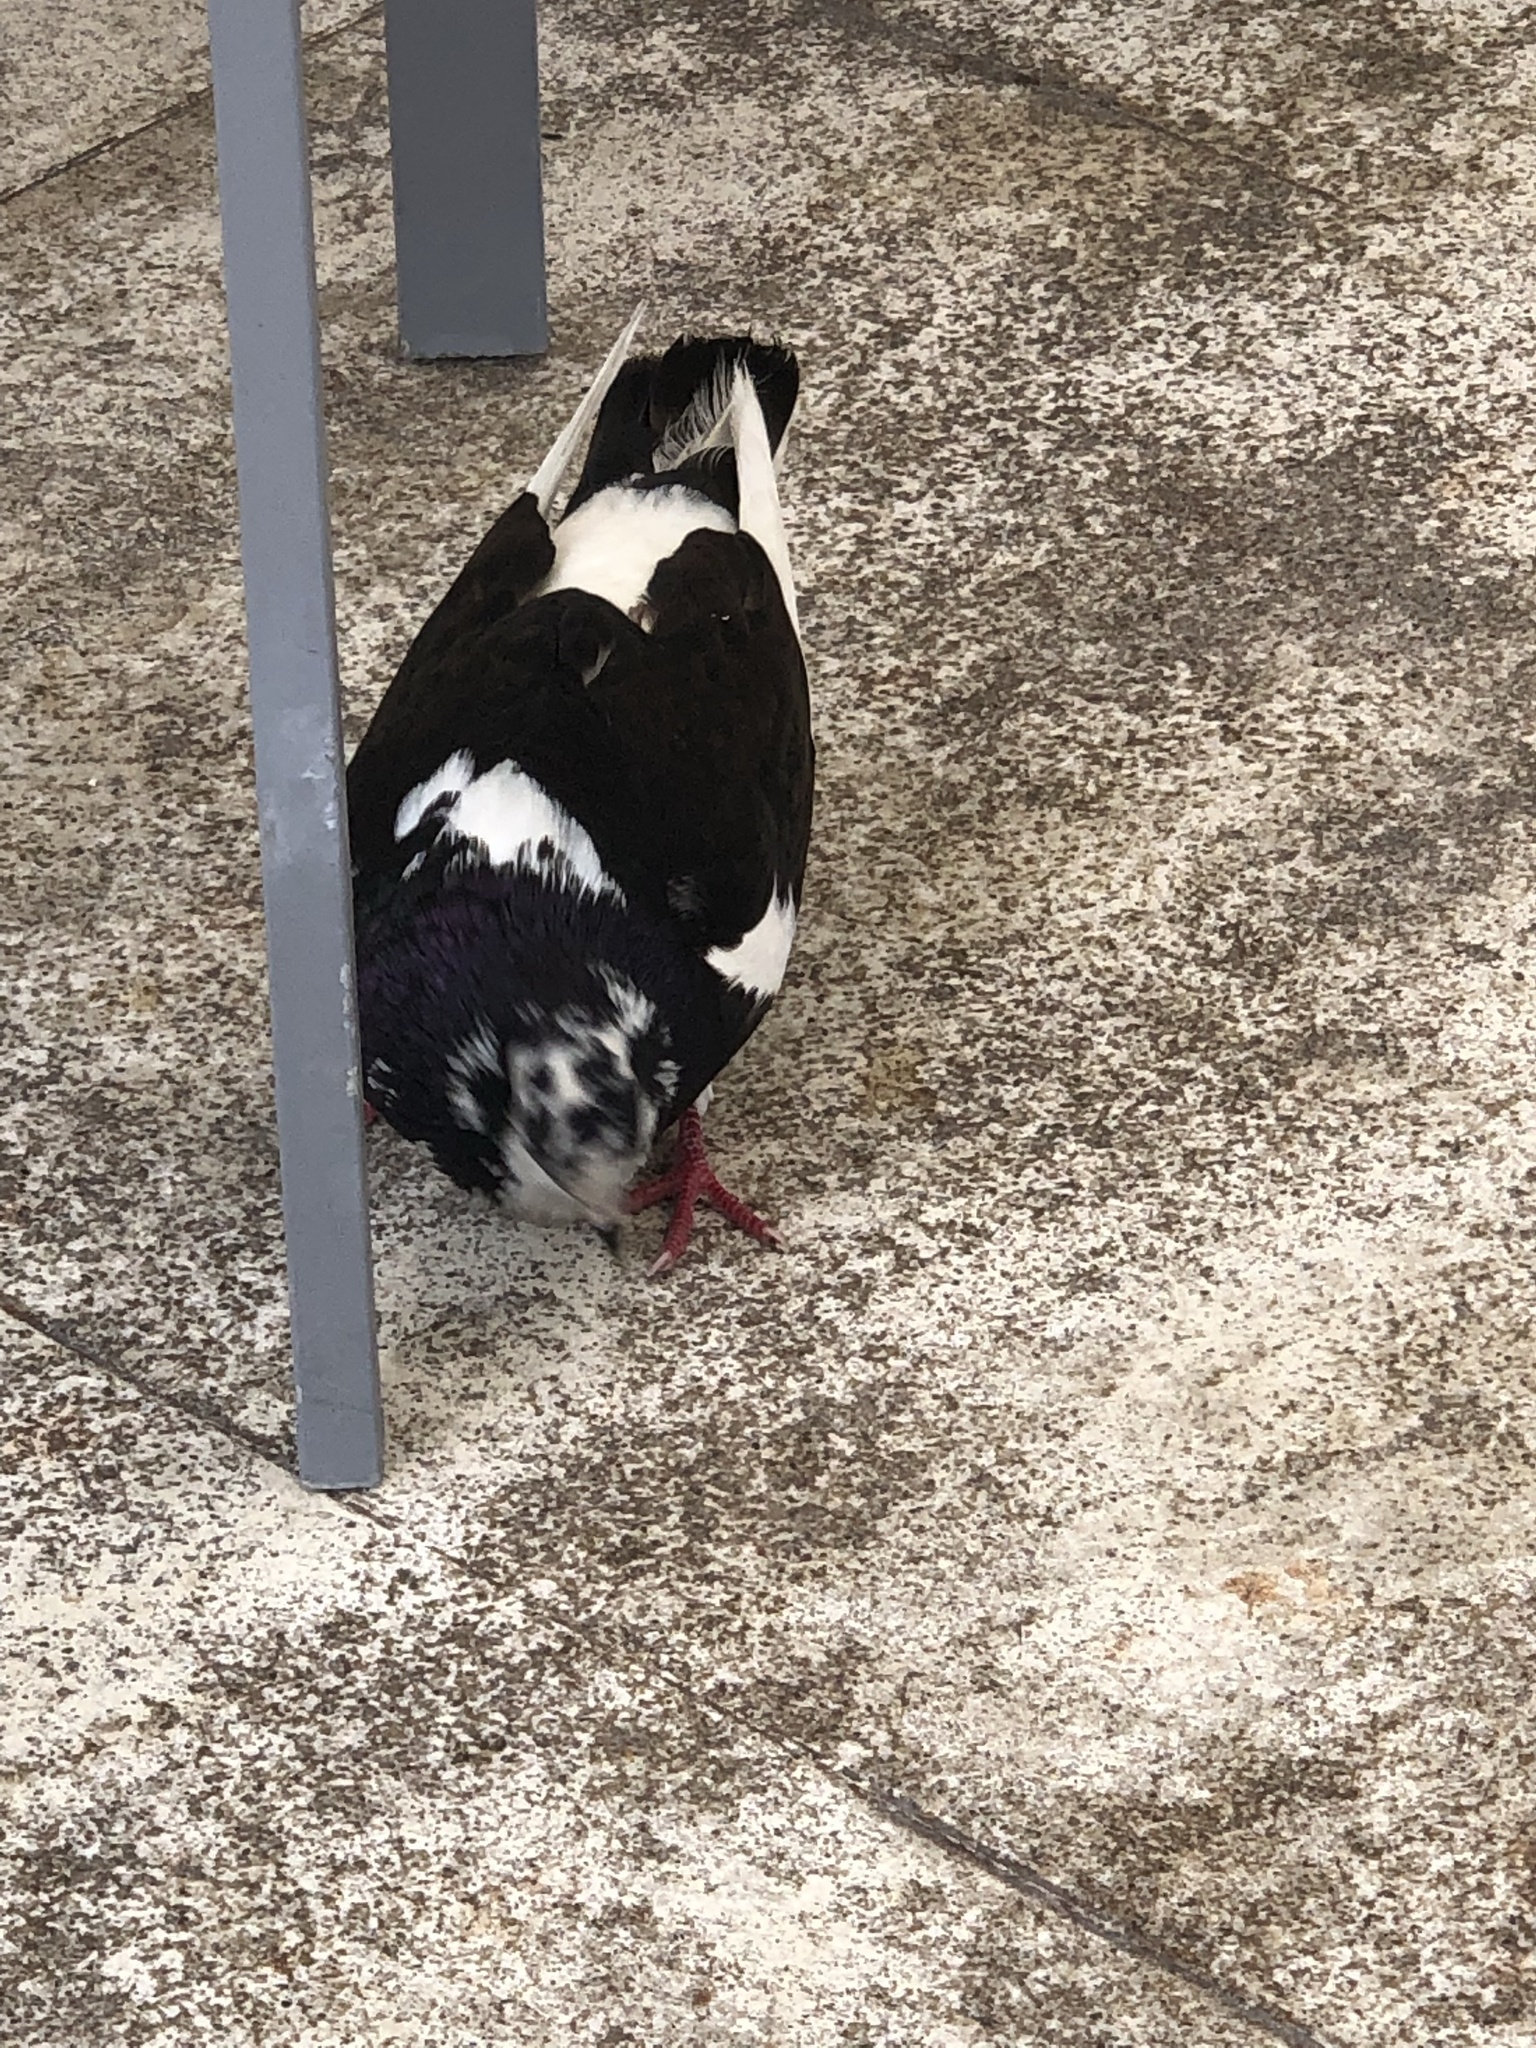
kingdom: Animalia
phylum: Chordata
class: Aves
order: Columbiformes
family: Columbidae
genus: Columba
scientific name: Columba livia
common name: Rock pigeon
